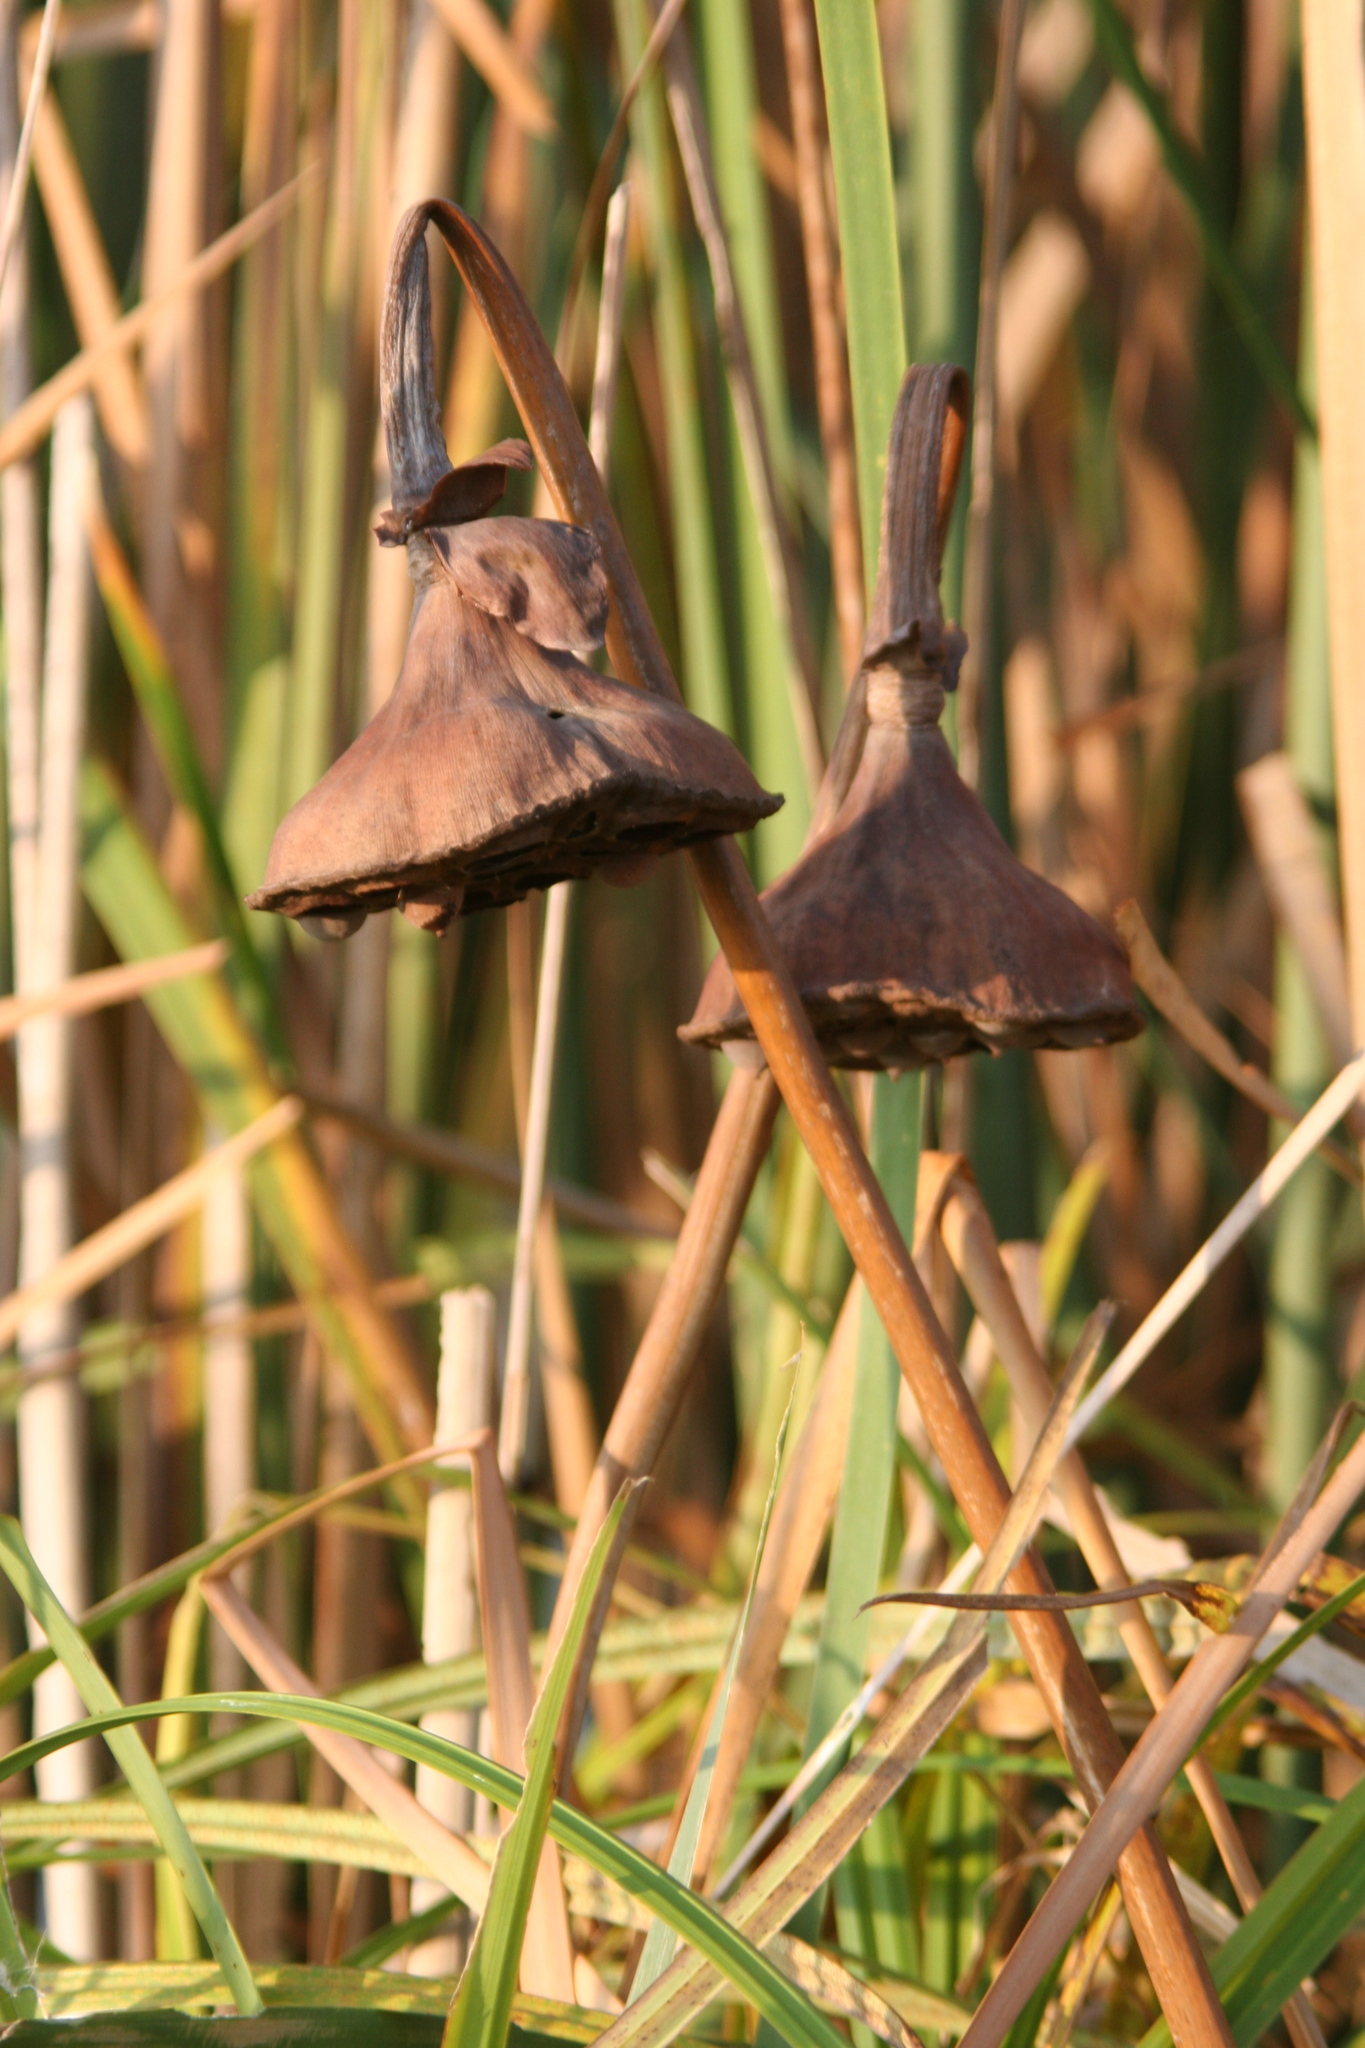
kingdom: Plantae
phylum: Tracheophyta
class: Magnoliopsida
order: Proteales
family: Nelumbonaceae
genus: Nelumbo
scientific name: Nelumbo lutea
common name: American lotus
